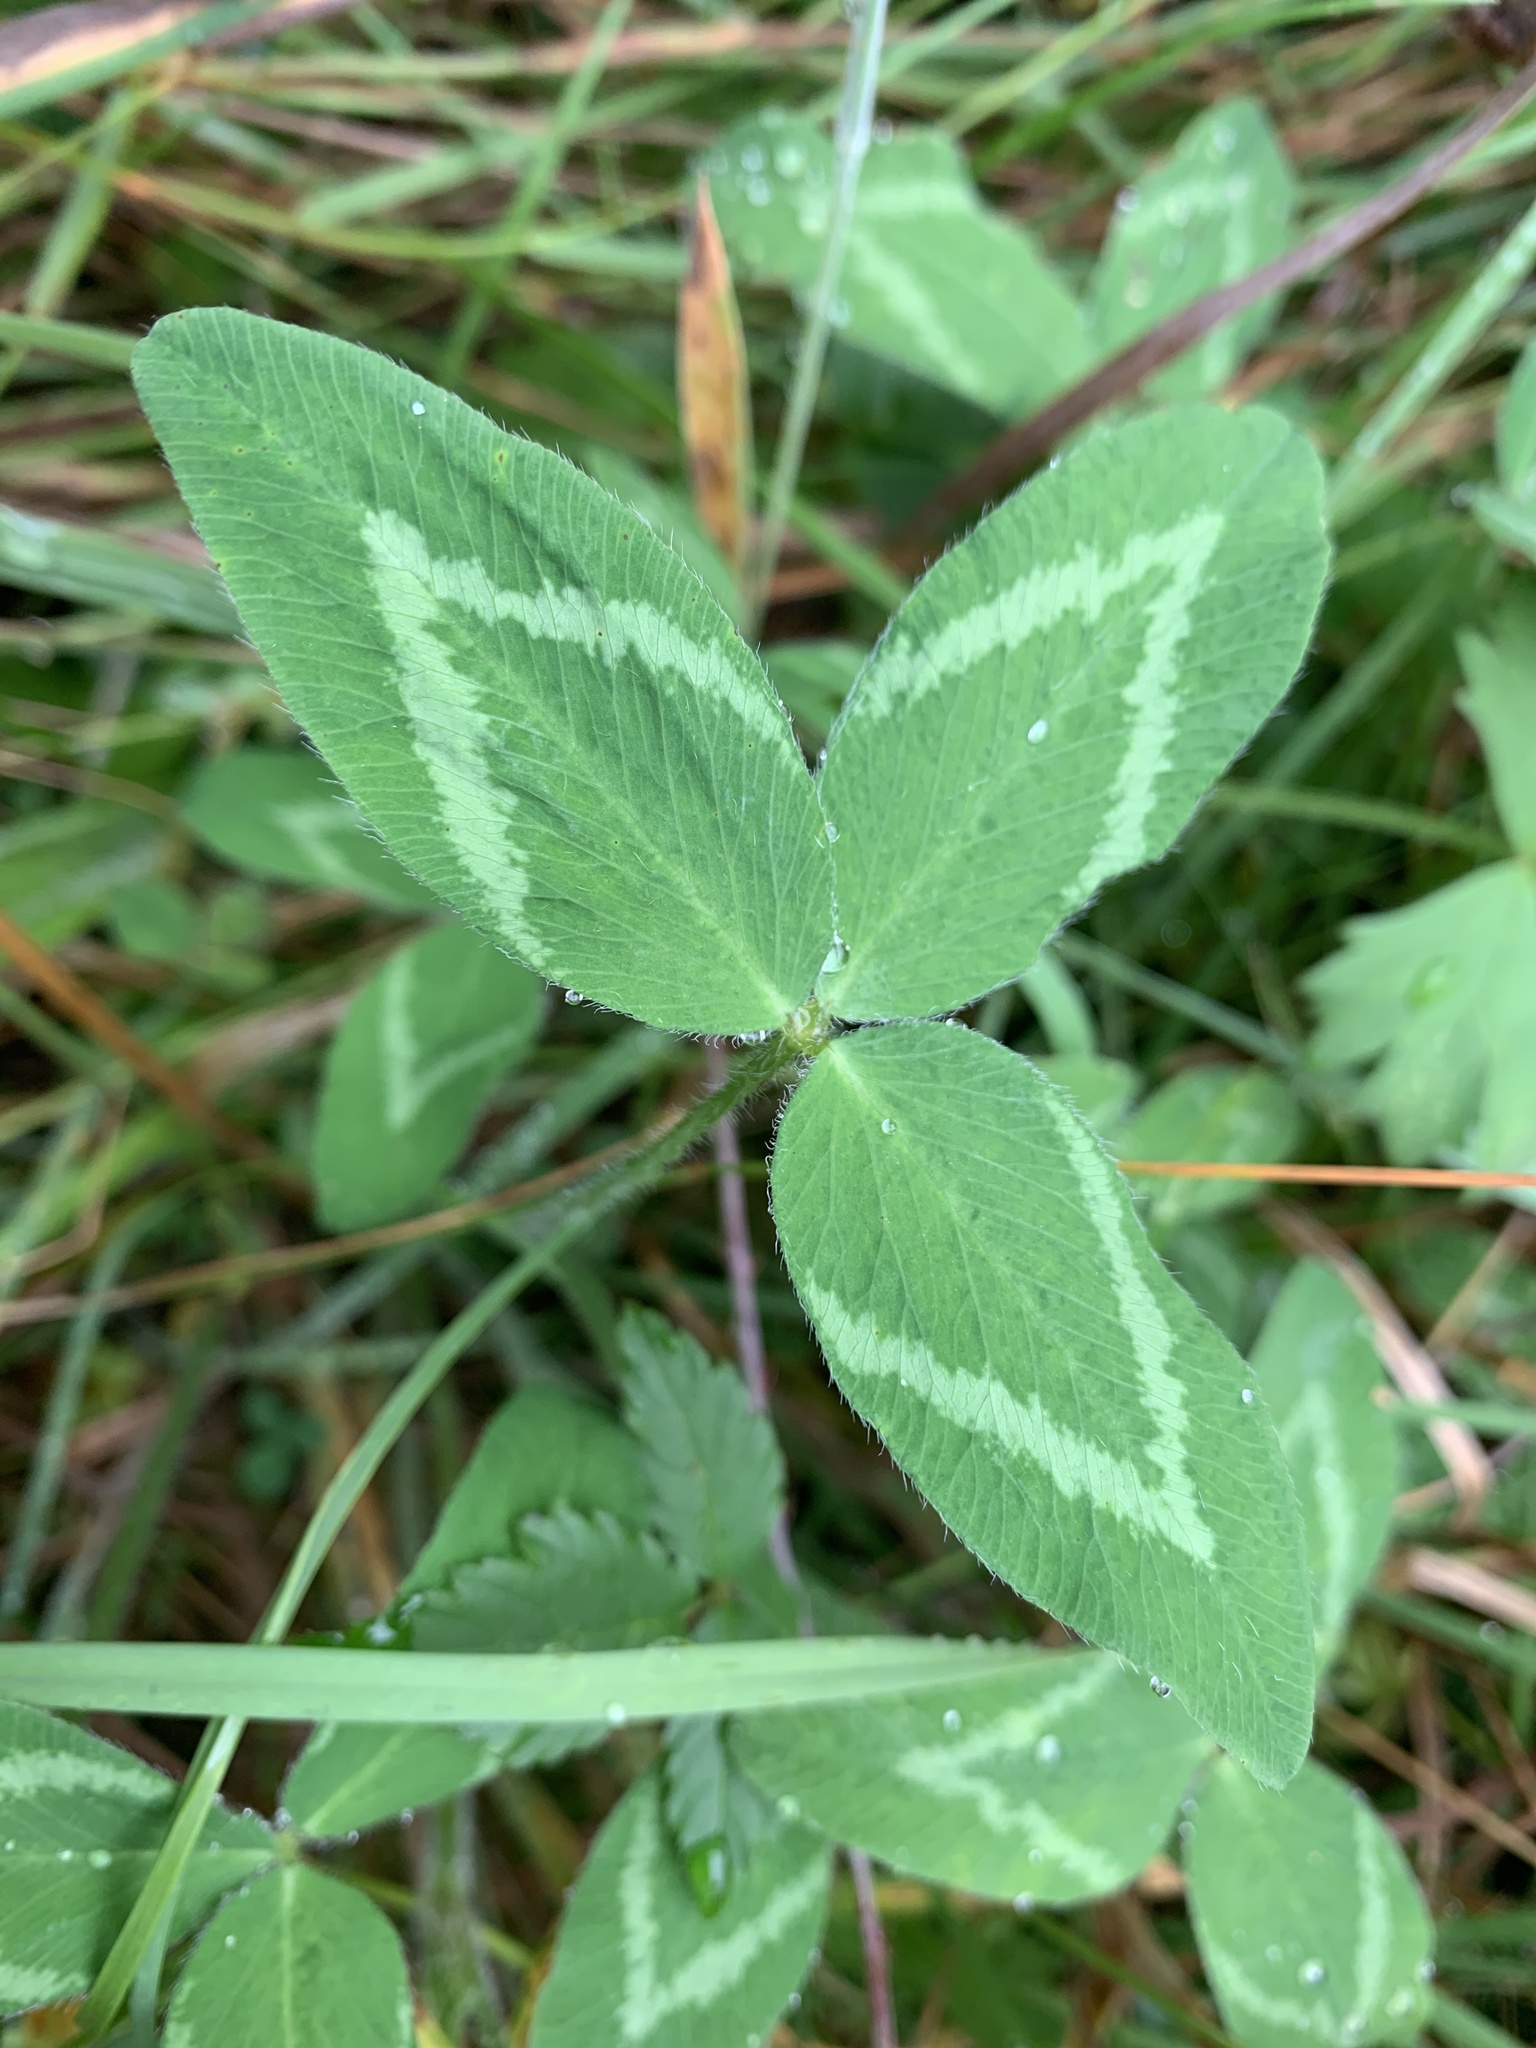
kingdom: Plantae
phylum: Tracheophyta
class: Magnoliopsida
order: Fabales
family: Fabaceae
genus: Trifolium
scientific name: Trifolium pratense
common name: Red clover
